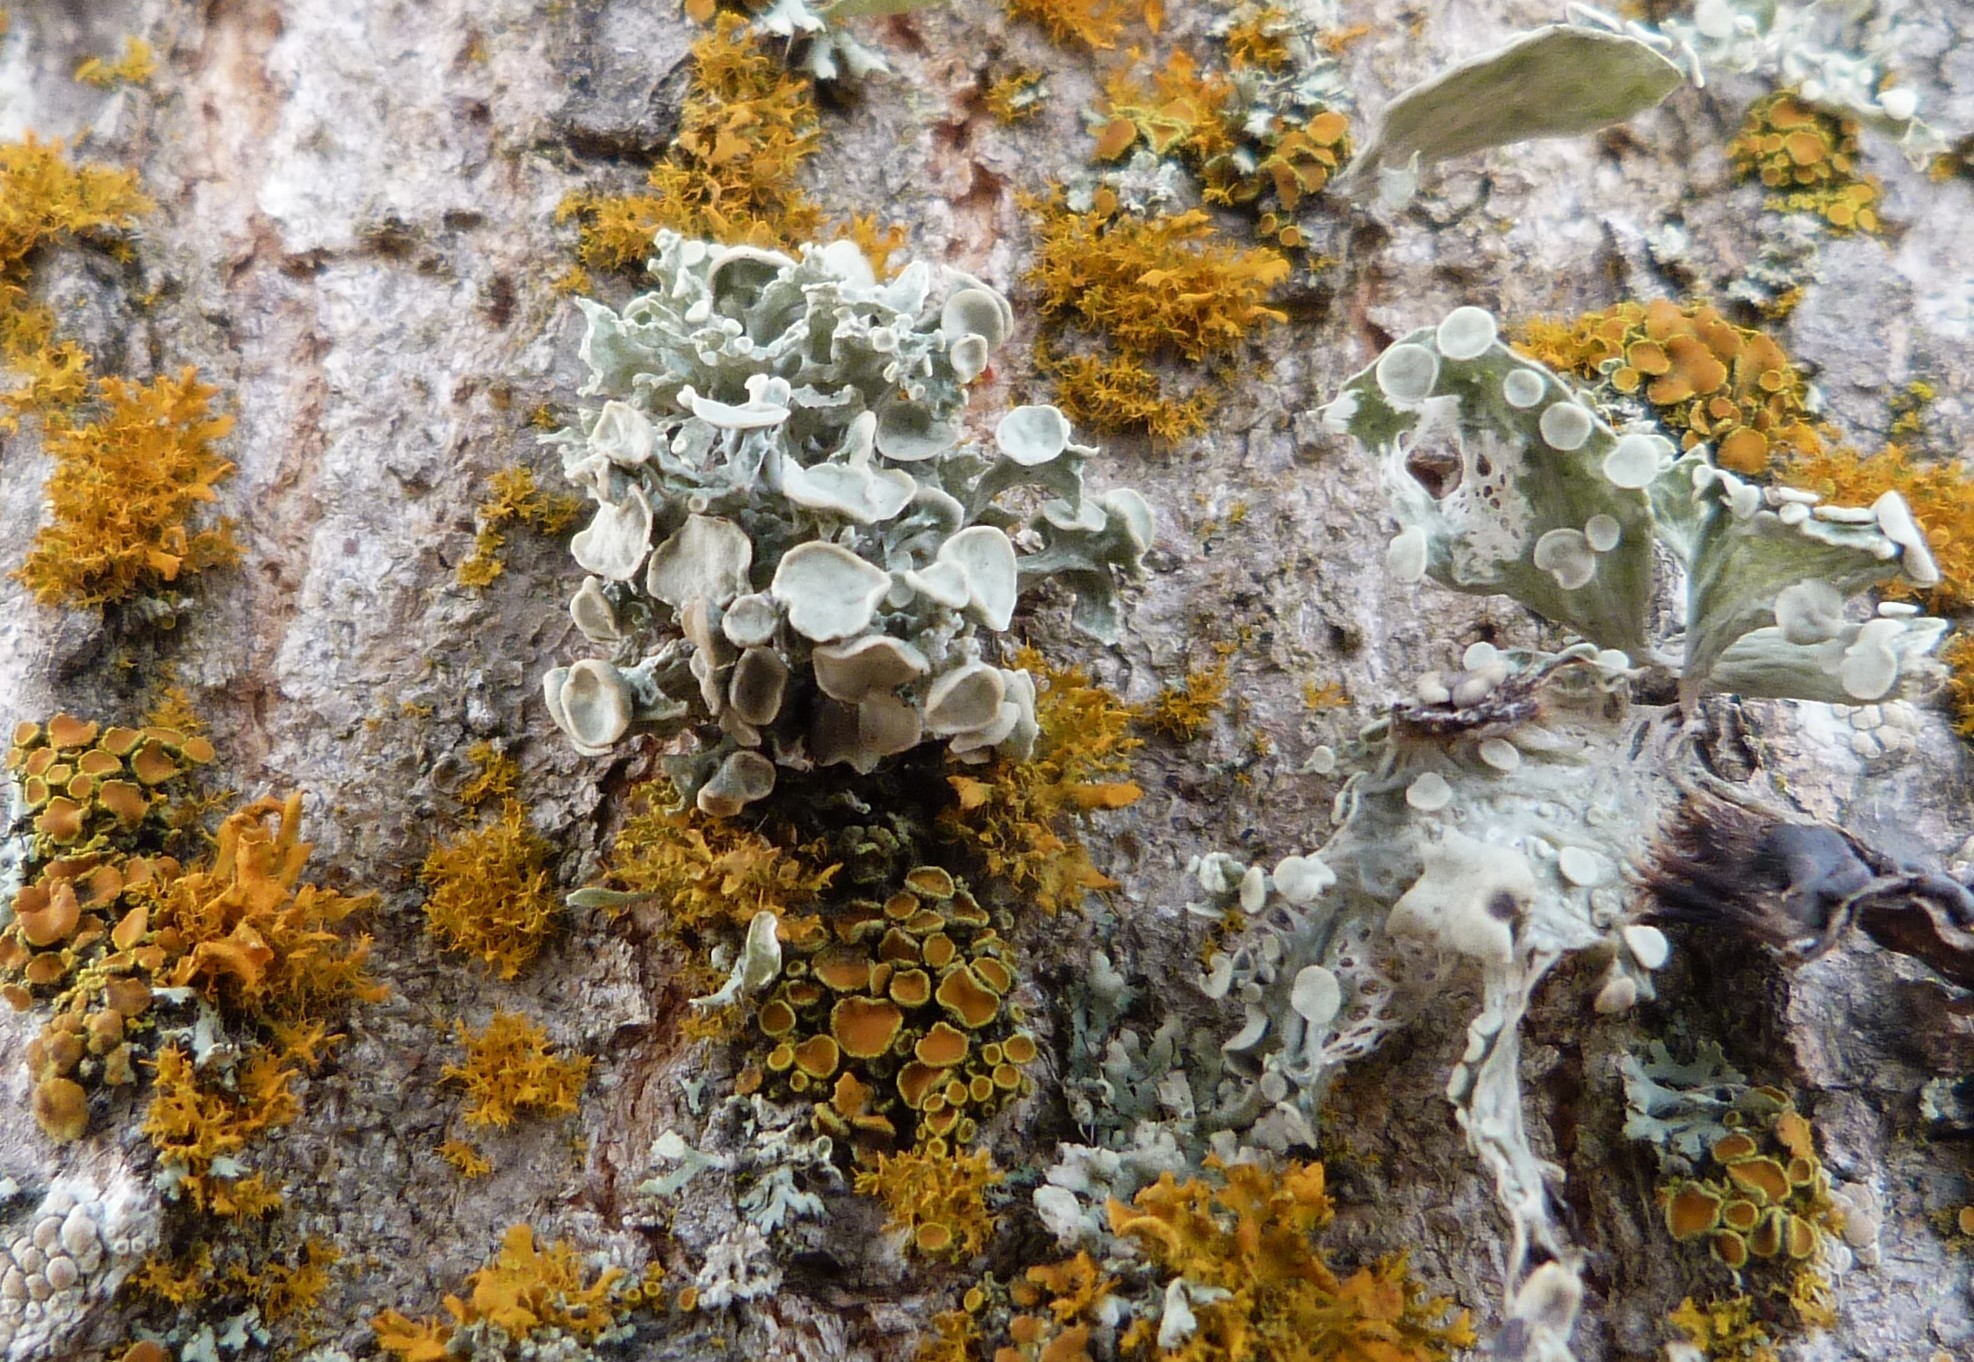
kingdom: Fungi
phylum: Ascomycota
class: Lecanoromycetes
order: Lecanorales
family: Ramalinaceae
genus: Ramalina
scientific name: Ramalina inflata
